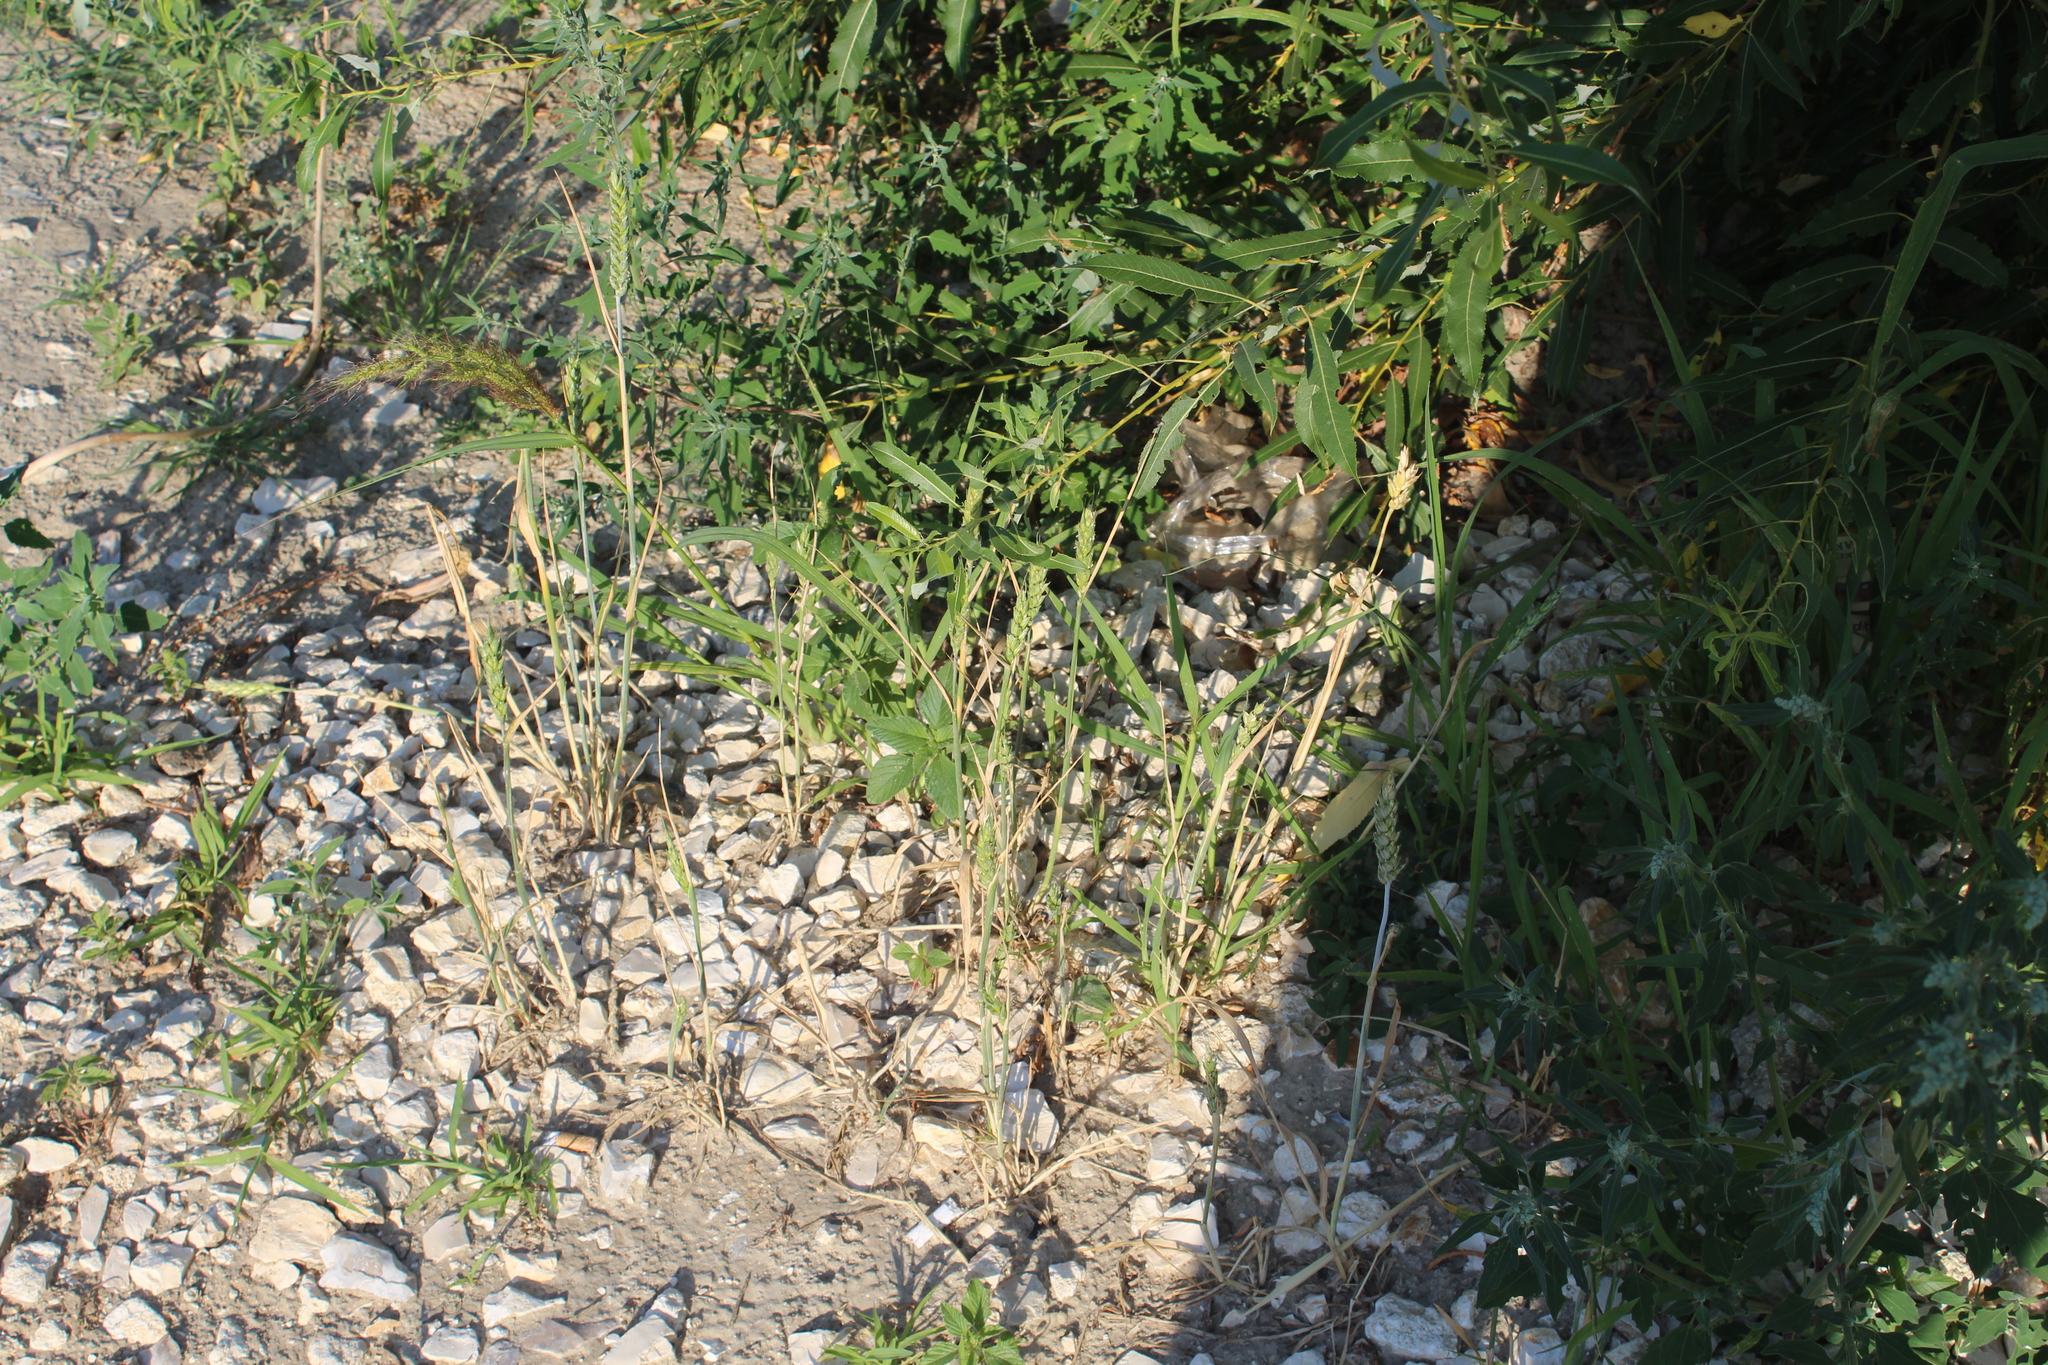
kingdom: Plantae
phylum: Tracheophyta
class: Liliopsida
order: Poales
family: Poaceae
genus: Triticum
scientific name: Triticum aestivum
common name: Common wheat
